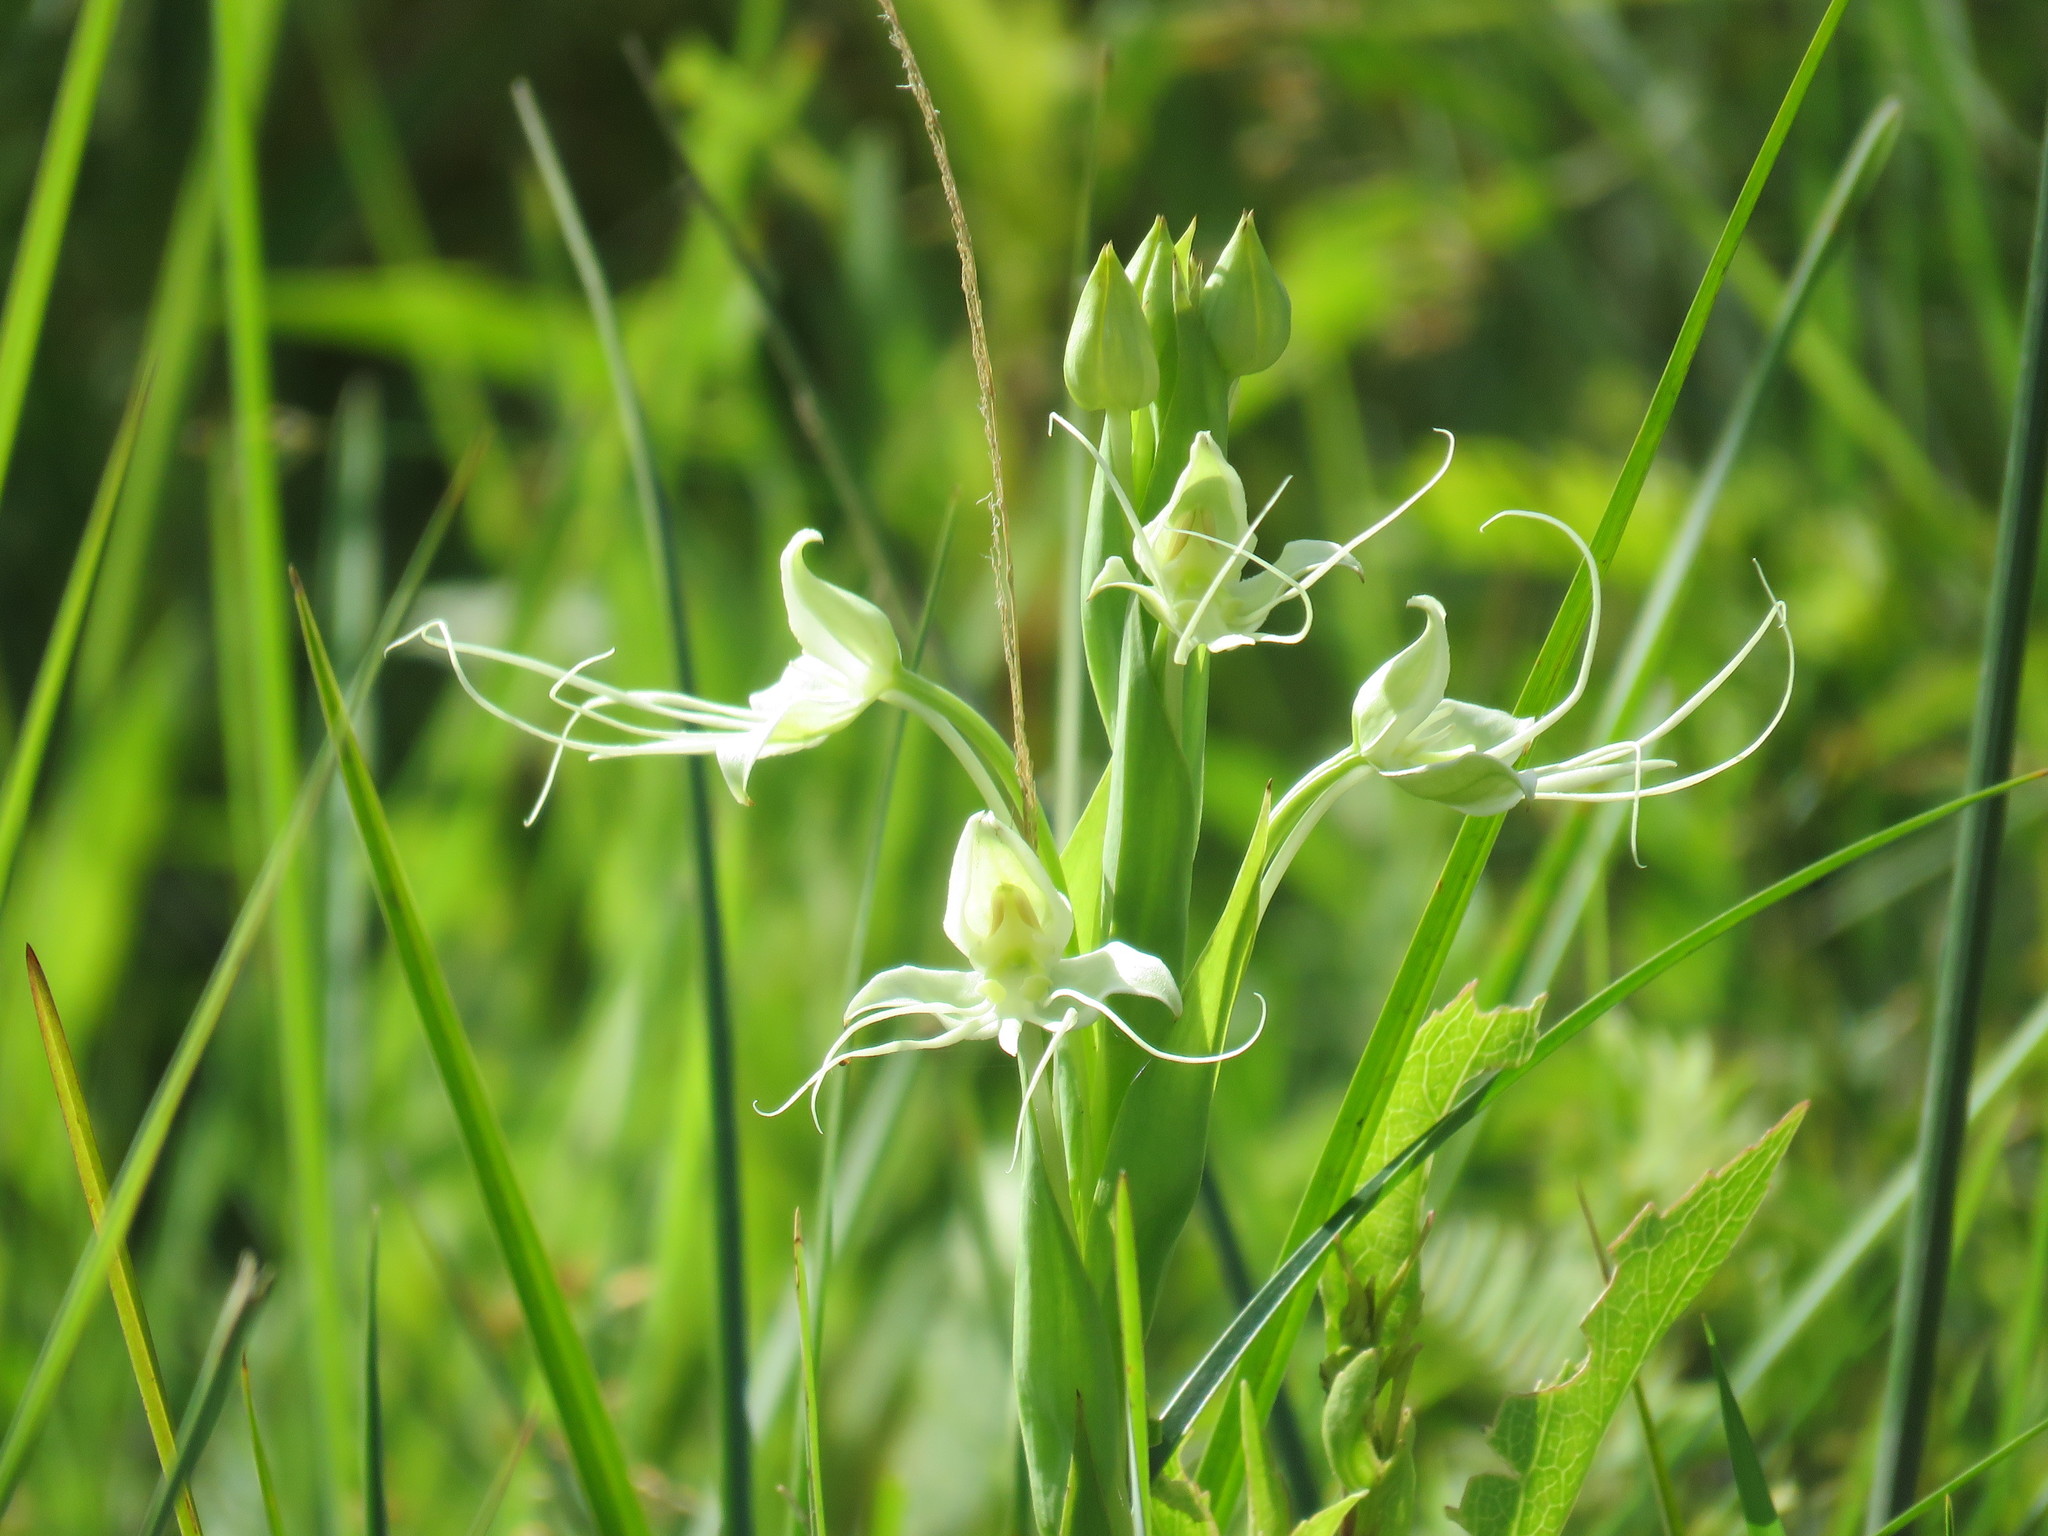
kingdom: Plantae
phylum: Tracheophyta
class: Liliopsida
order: Asparagales
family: Orchidaceae
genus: Habenaria
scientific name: Habenaria gourlieana
